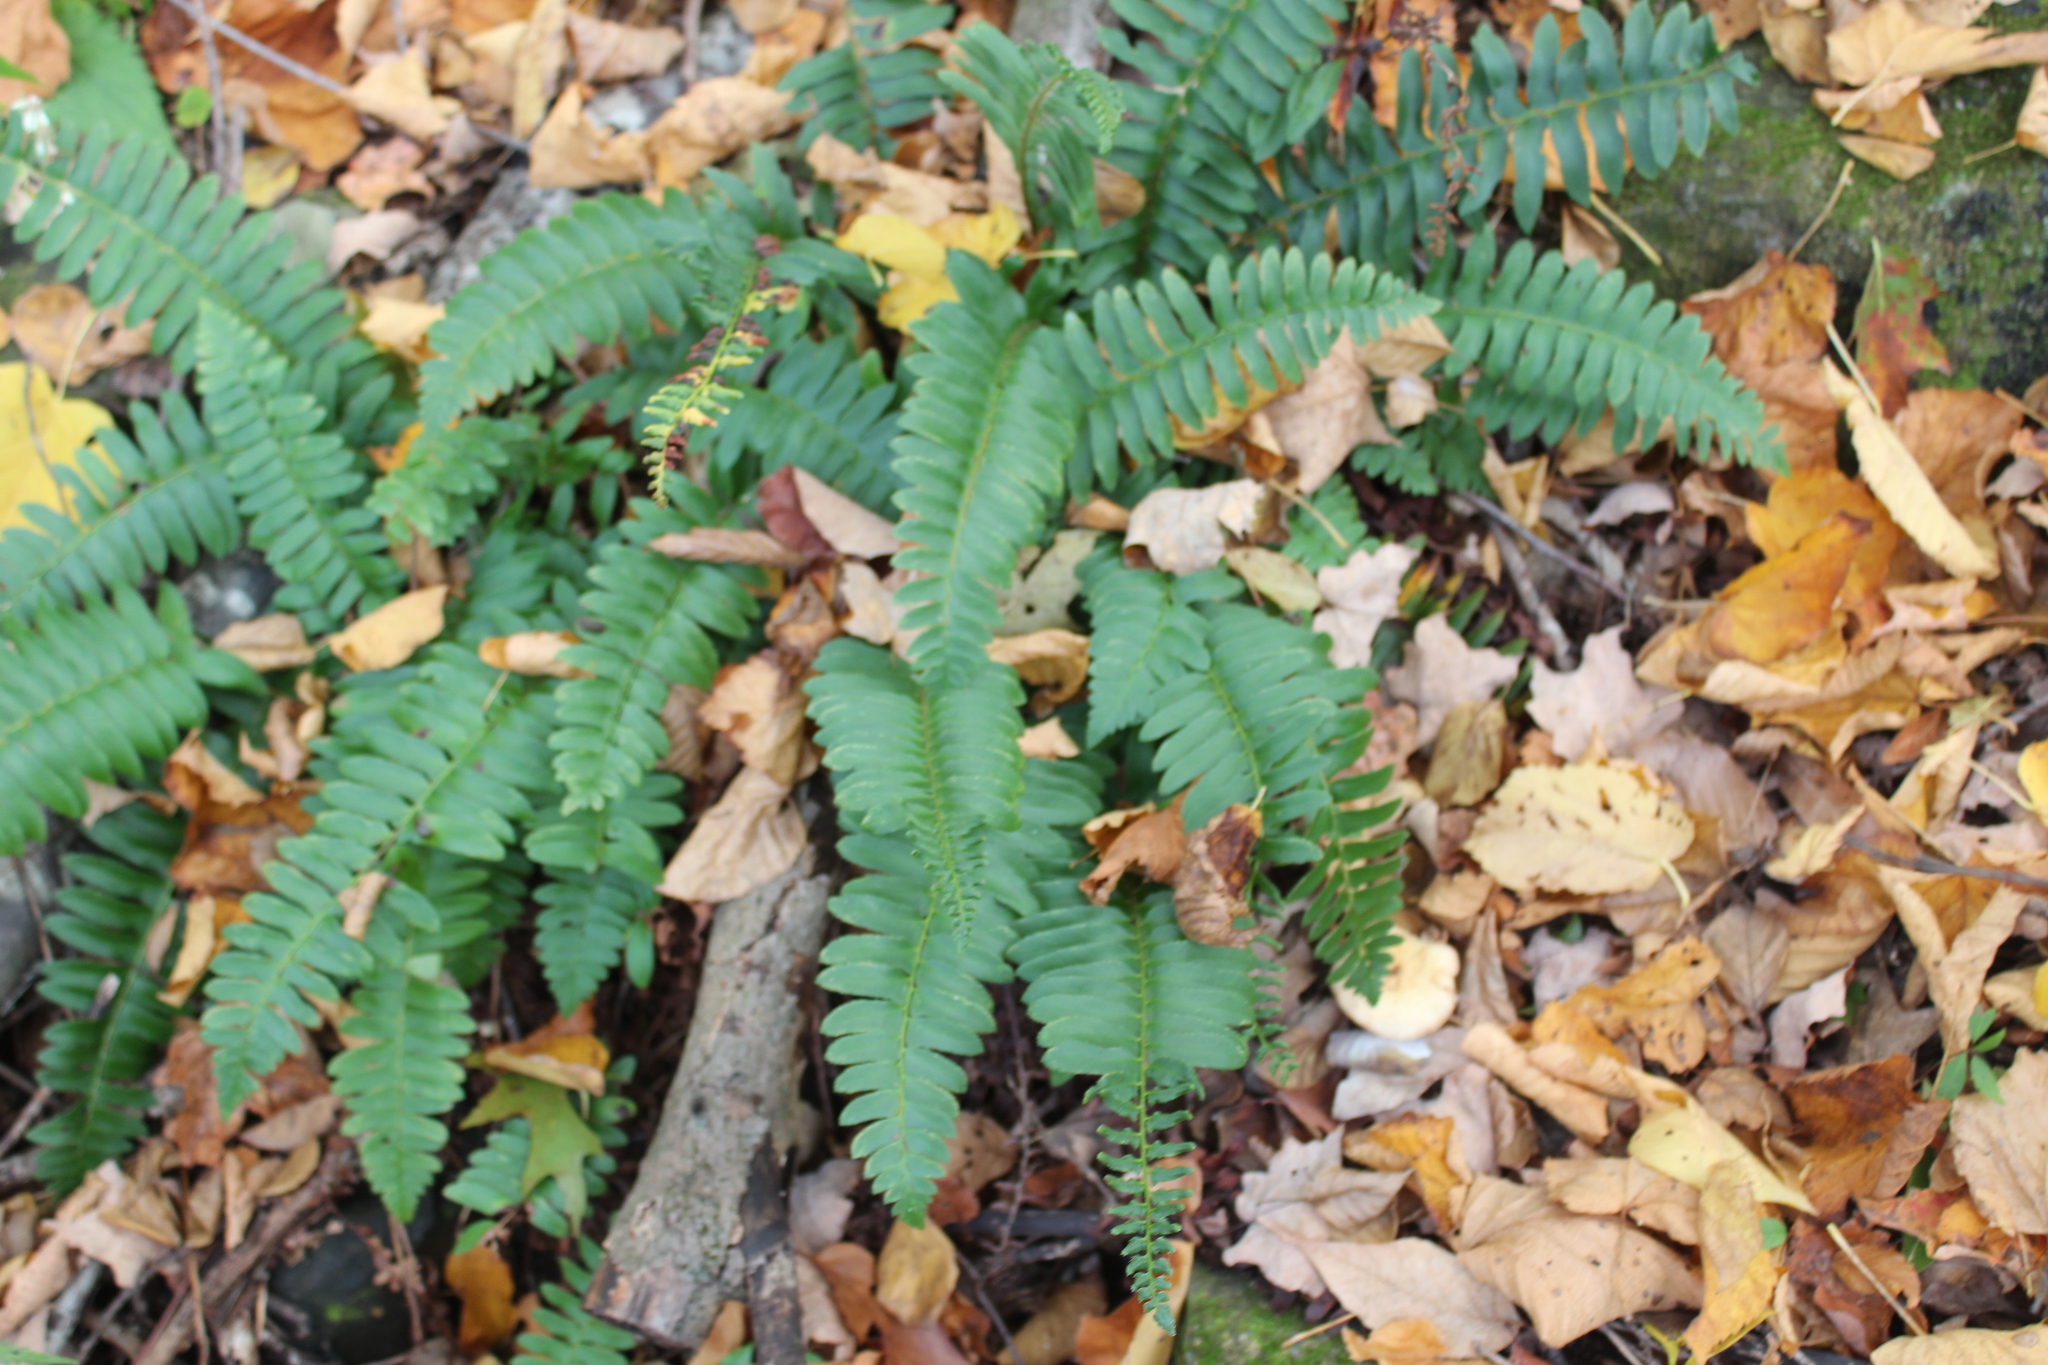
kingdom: Plantae
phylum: Tracheophyta
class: Polypodiopsida
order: Polypodiales
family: Dryopteridaceae
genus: Polystichum
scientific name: Polystichum acrostichoides
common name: Christmas fern
